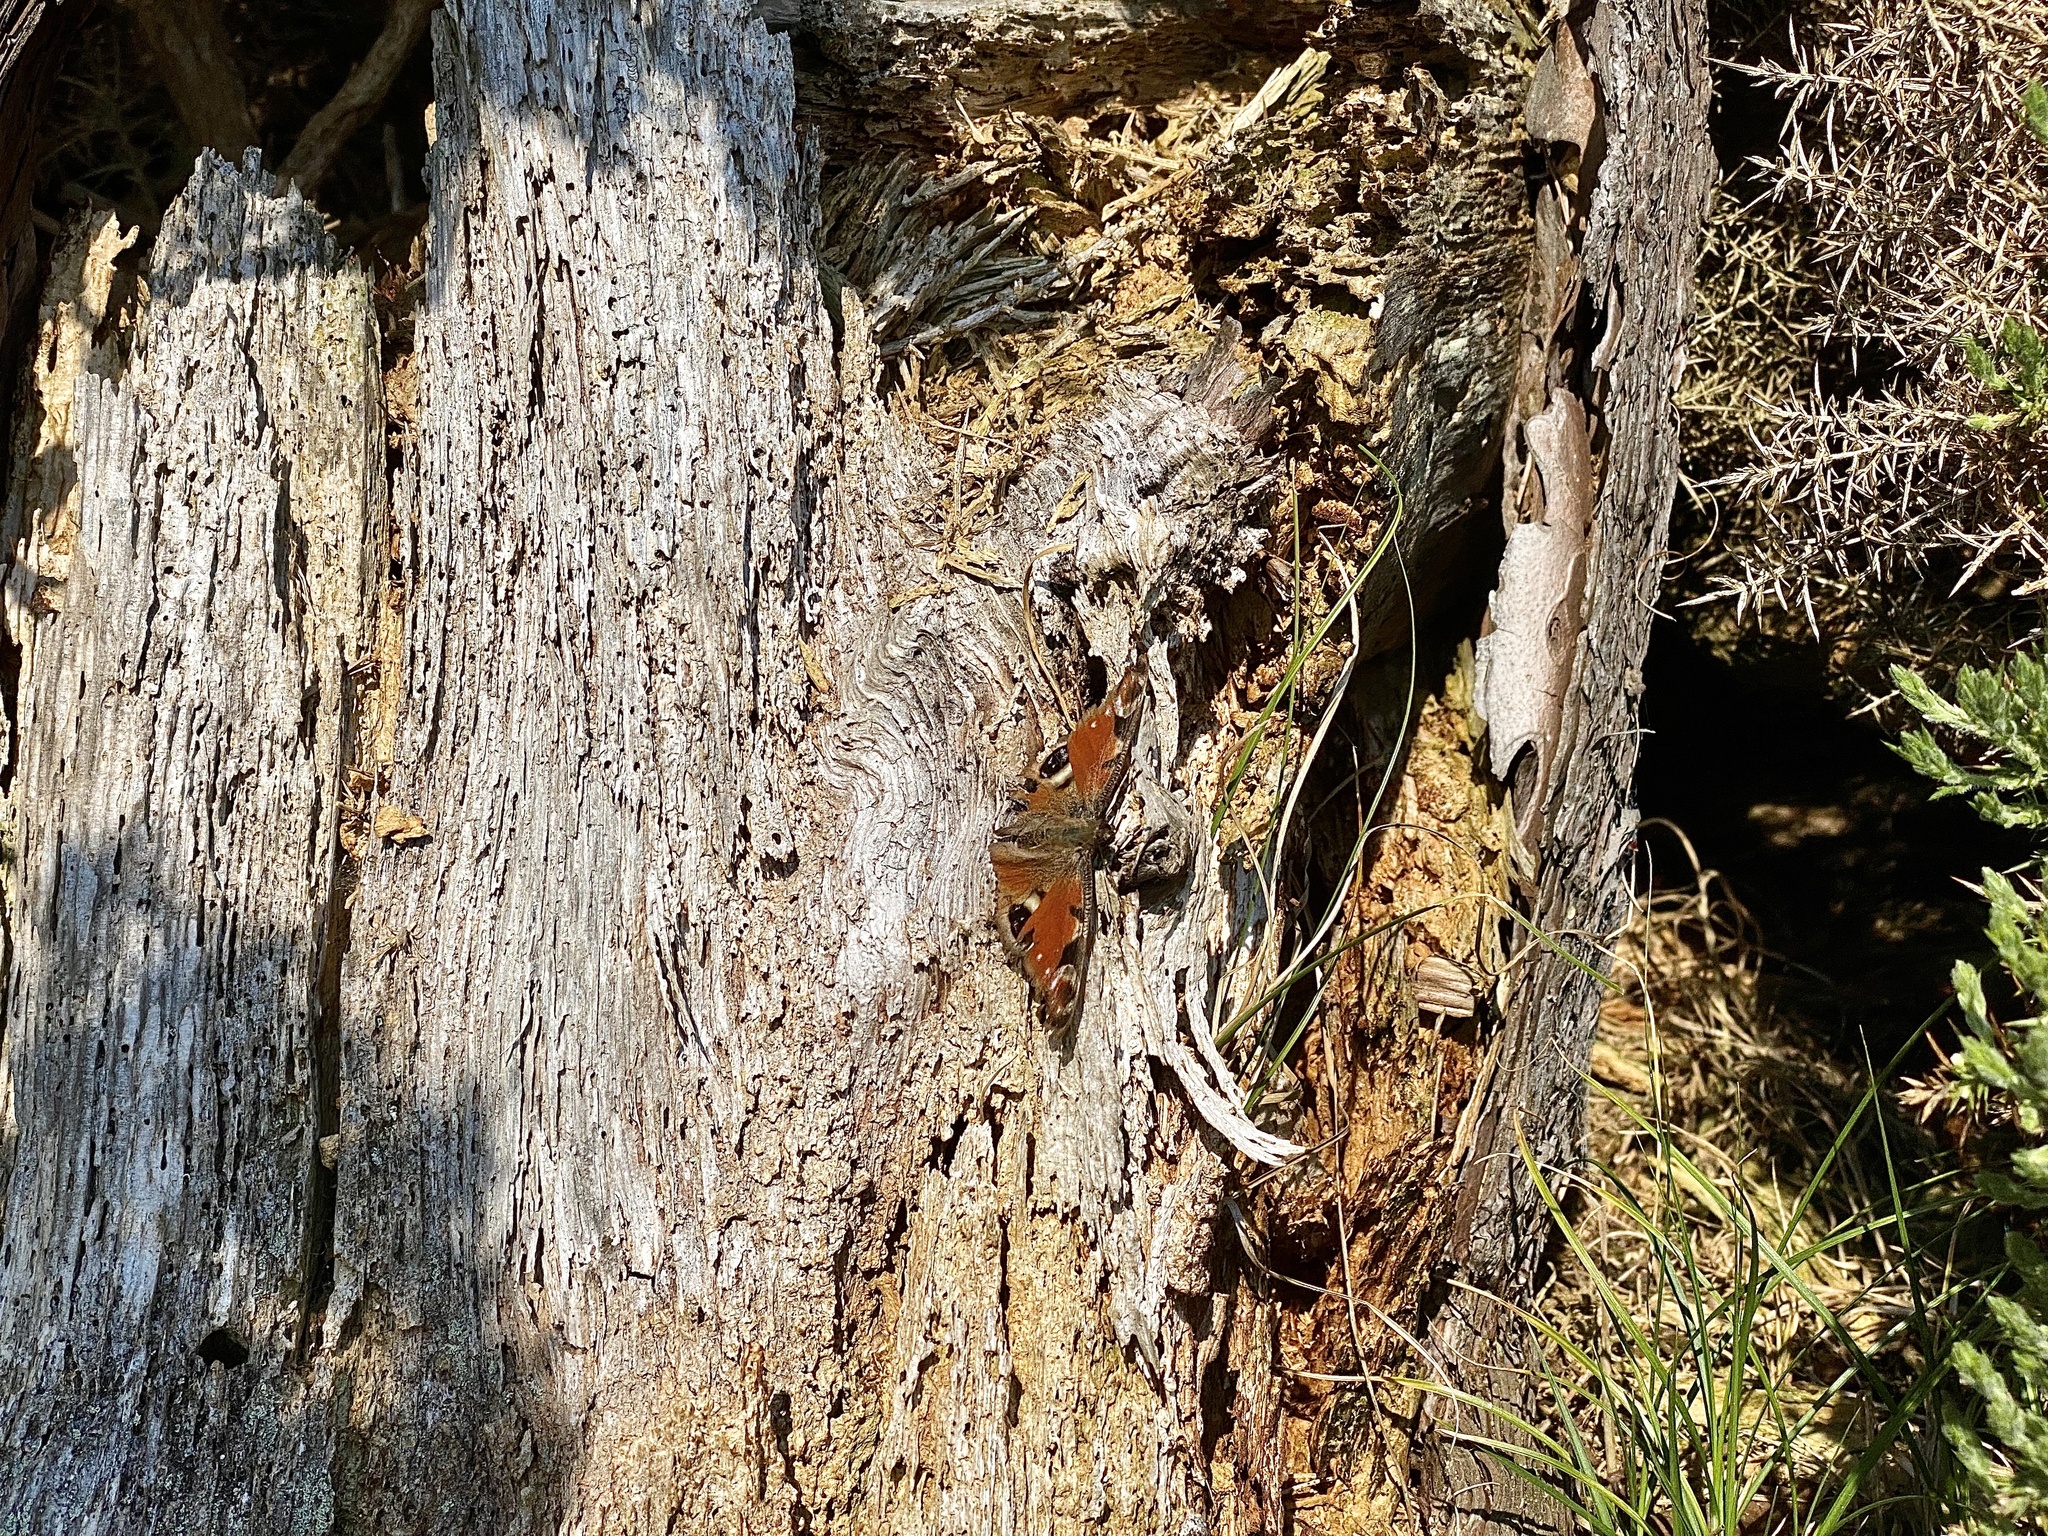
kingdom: Animalia
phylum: Arthropoda
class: Insecta
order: Lepidoptera
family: Nymphalidae
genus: Aglais
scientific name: Aglais io
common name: Peacock
